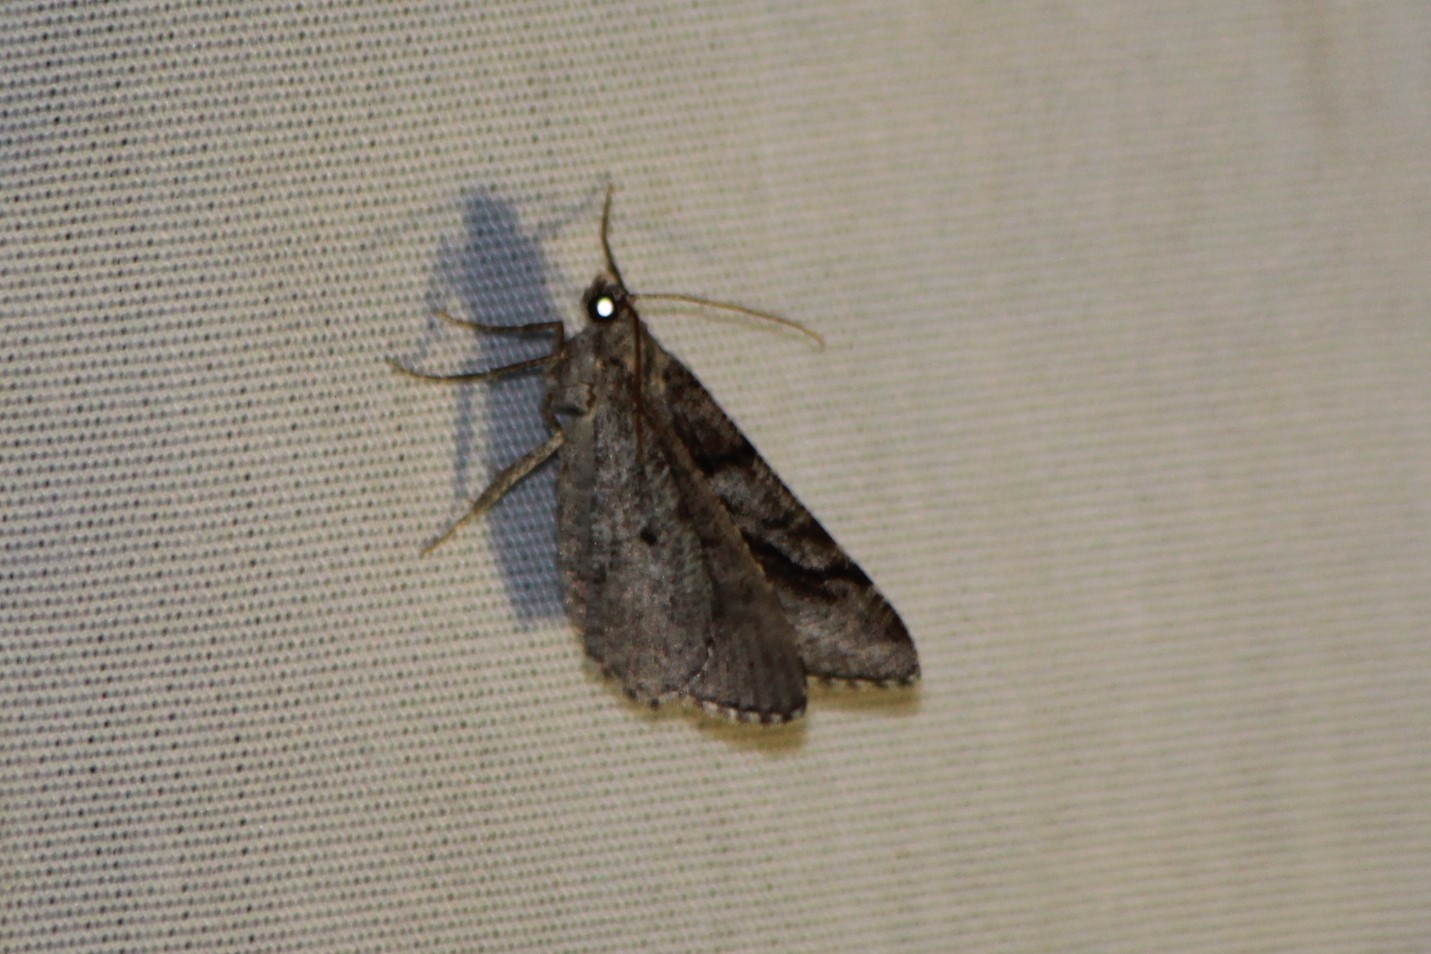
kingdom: Animalia
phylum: Arthropoda
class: Insecta
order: Lepidoptera
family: Geometridae
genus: Digrammia
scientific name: Digrammia continuata
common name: Curve-lined angle
